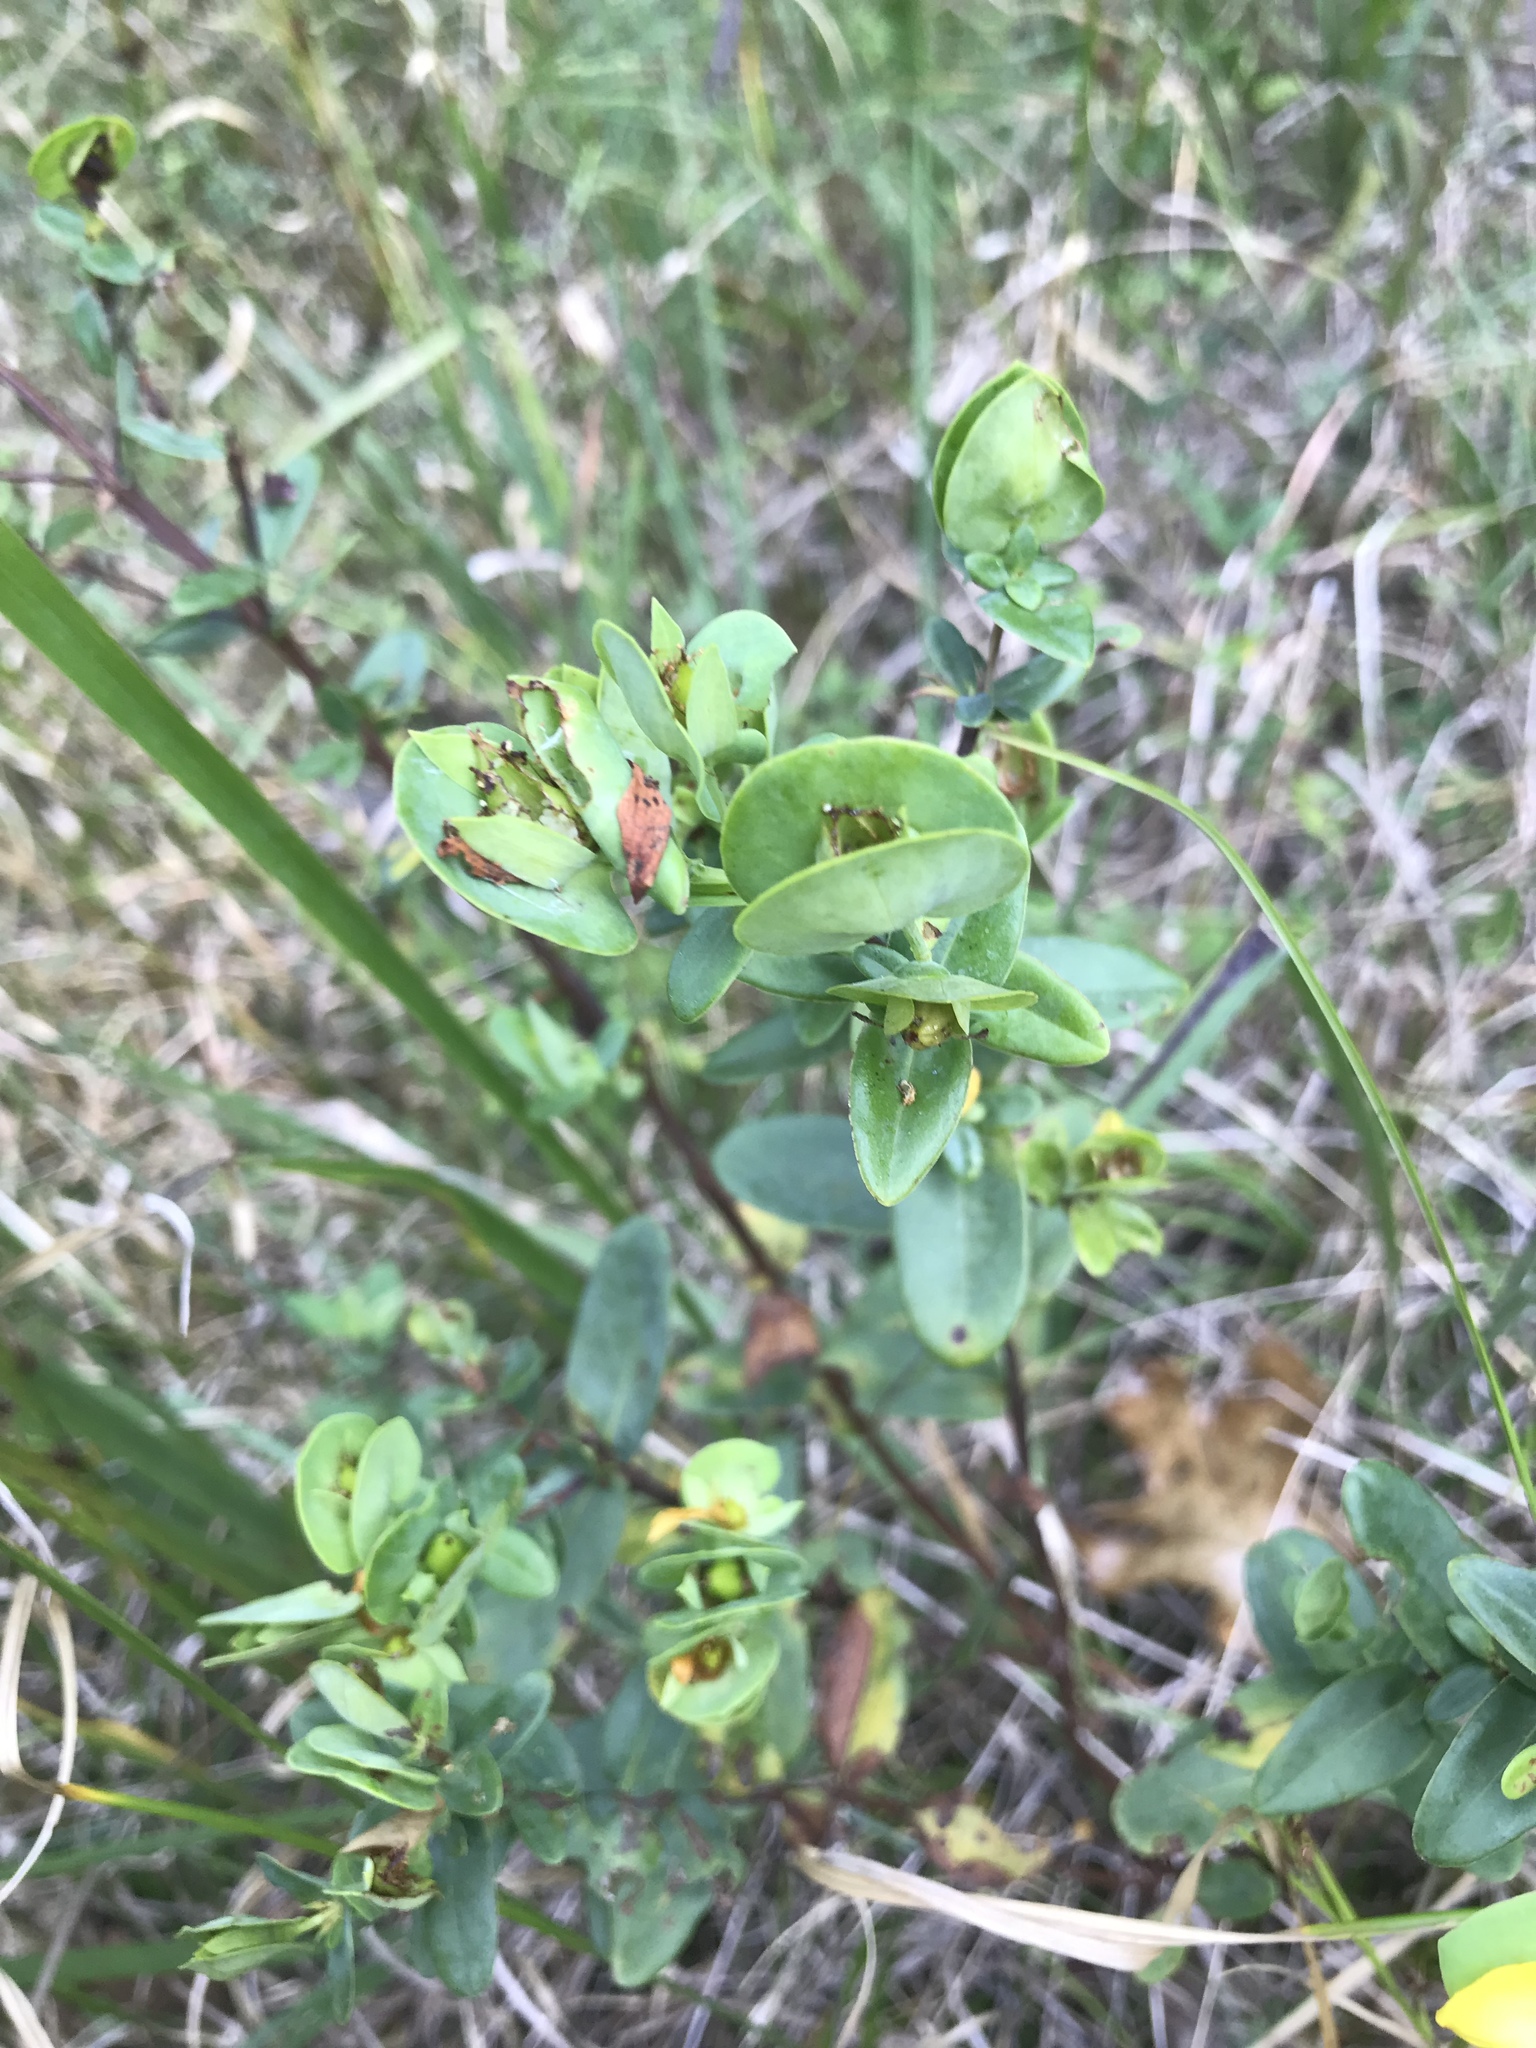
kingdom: Plantae
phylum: Tracheophyta
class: Magnoliopsida
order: Malpighiales
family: Hypericaceae
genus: Hypericum
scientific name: Hypericum crux-andreae
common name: St.-peter's-wort
